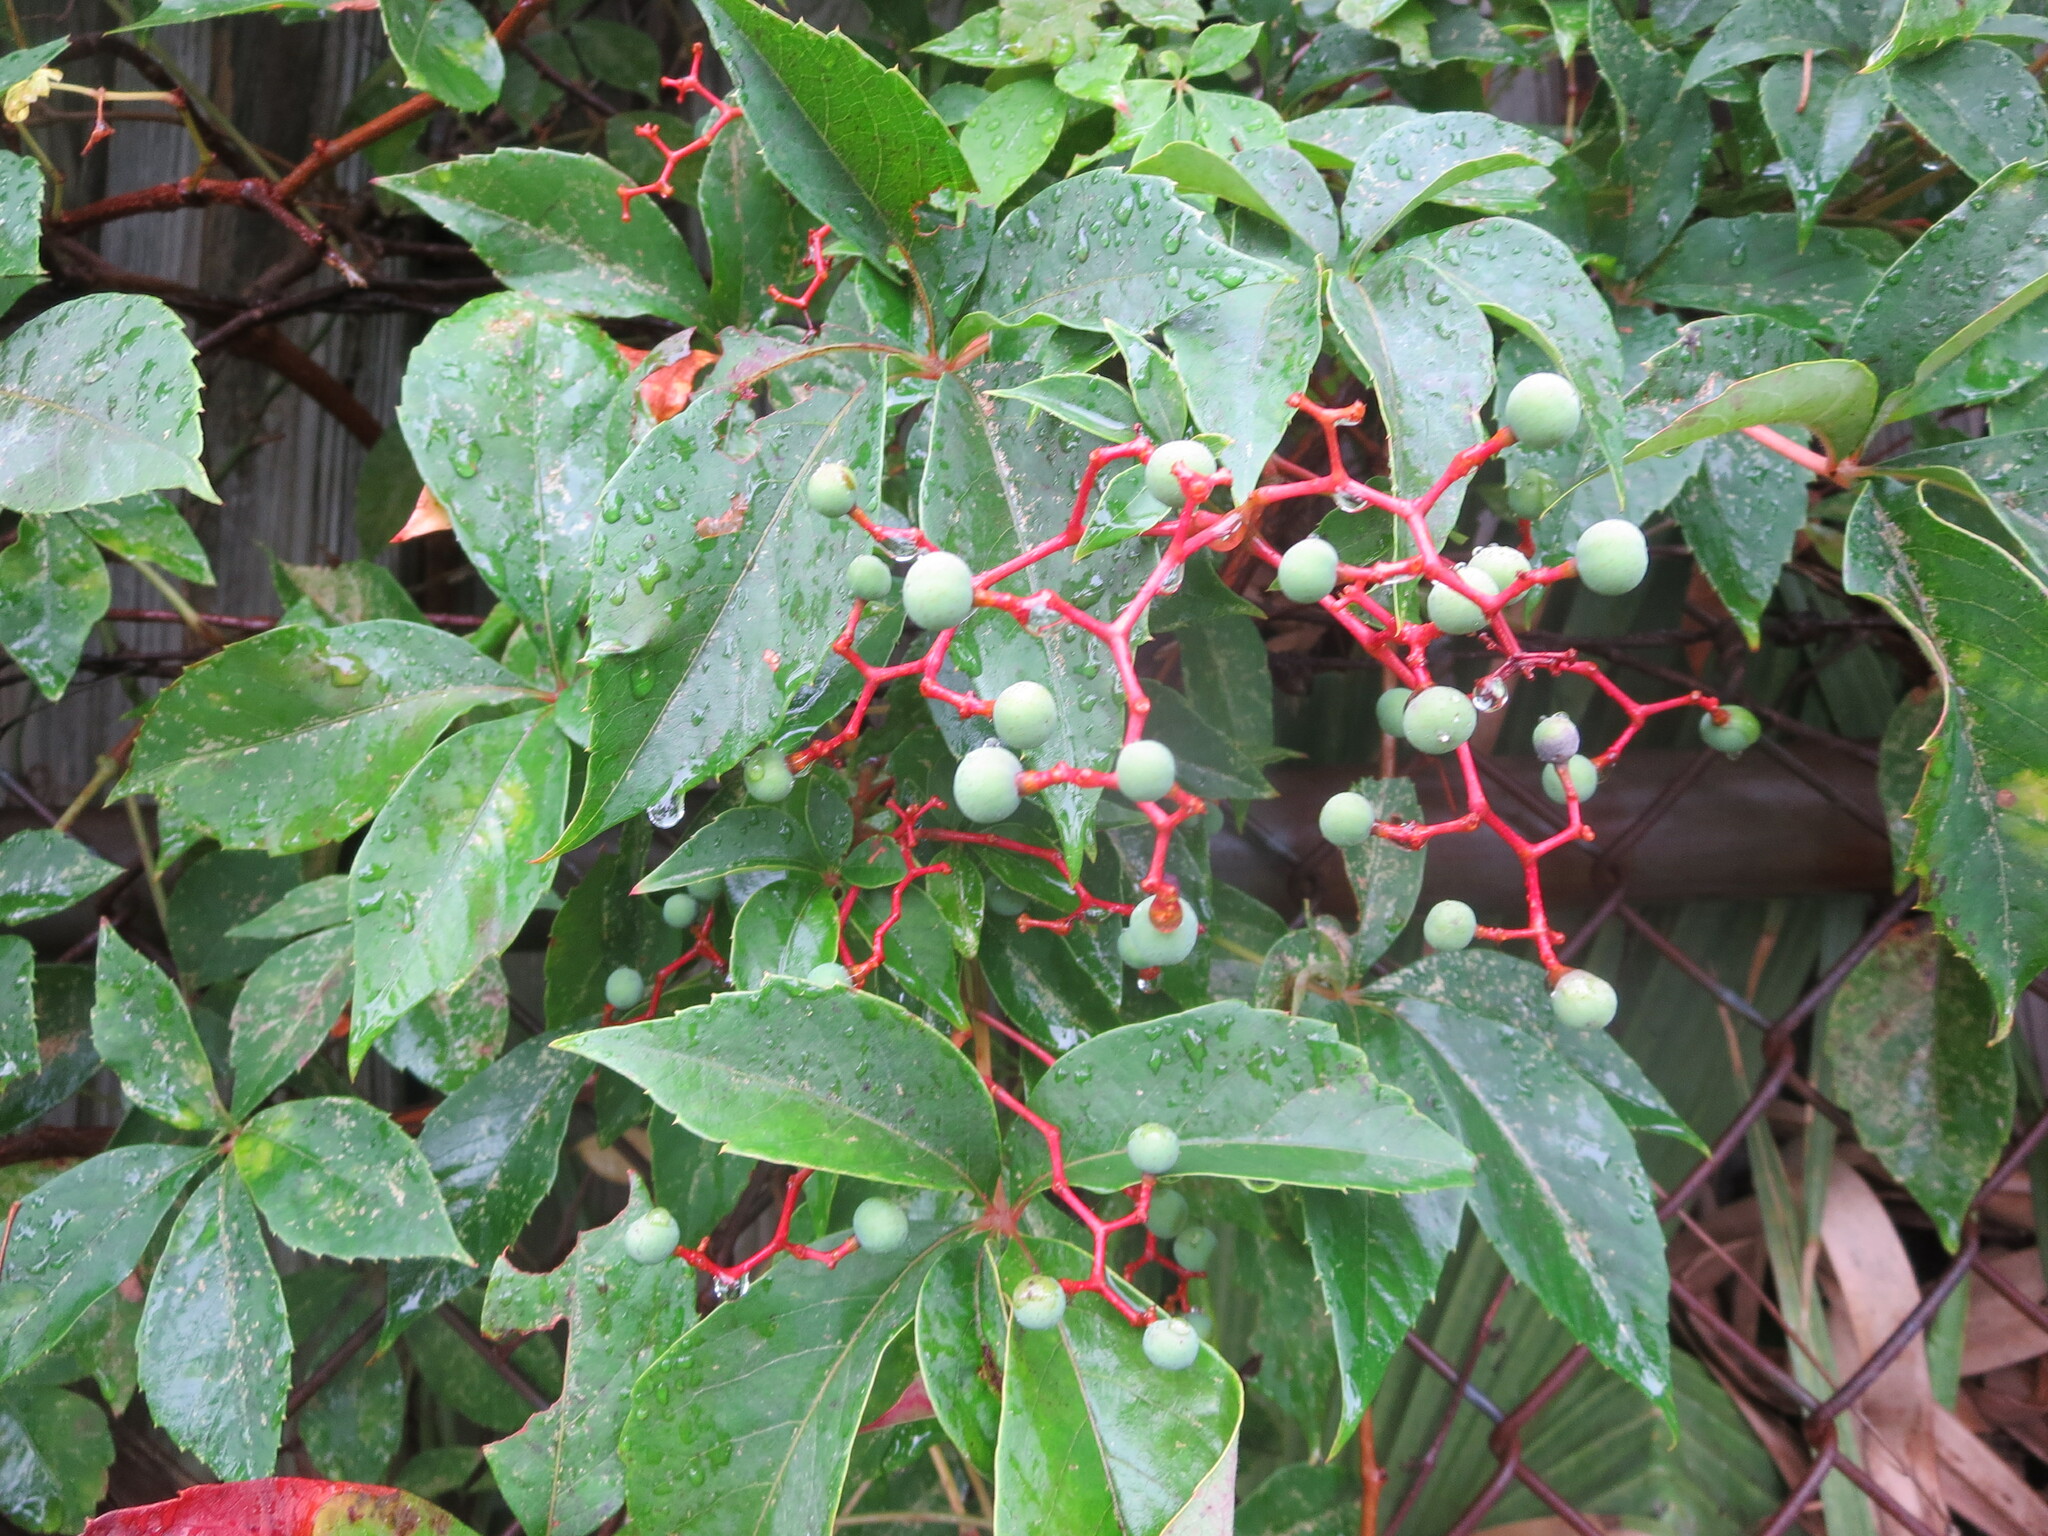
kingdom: Plantae
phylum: Tracheophyta
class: Magnoliopsida
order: Vitales
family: Vitaceae
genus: Parthenocissus
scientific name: Parthenocissus quinquefolia
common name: Virginia-creeper
